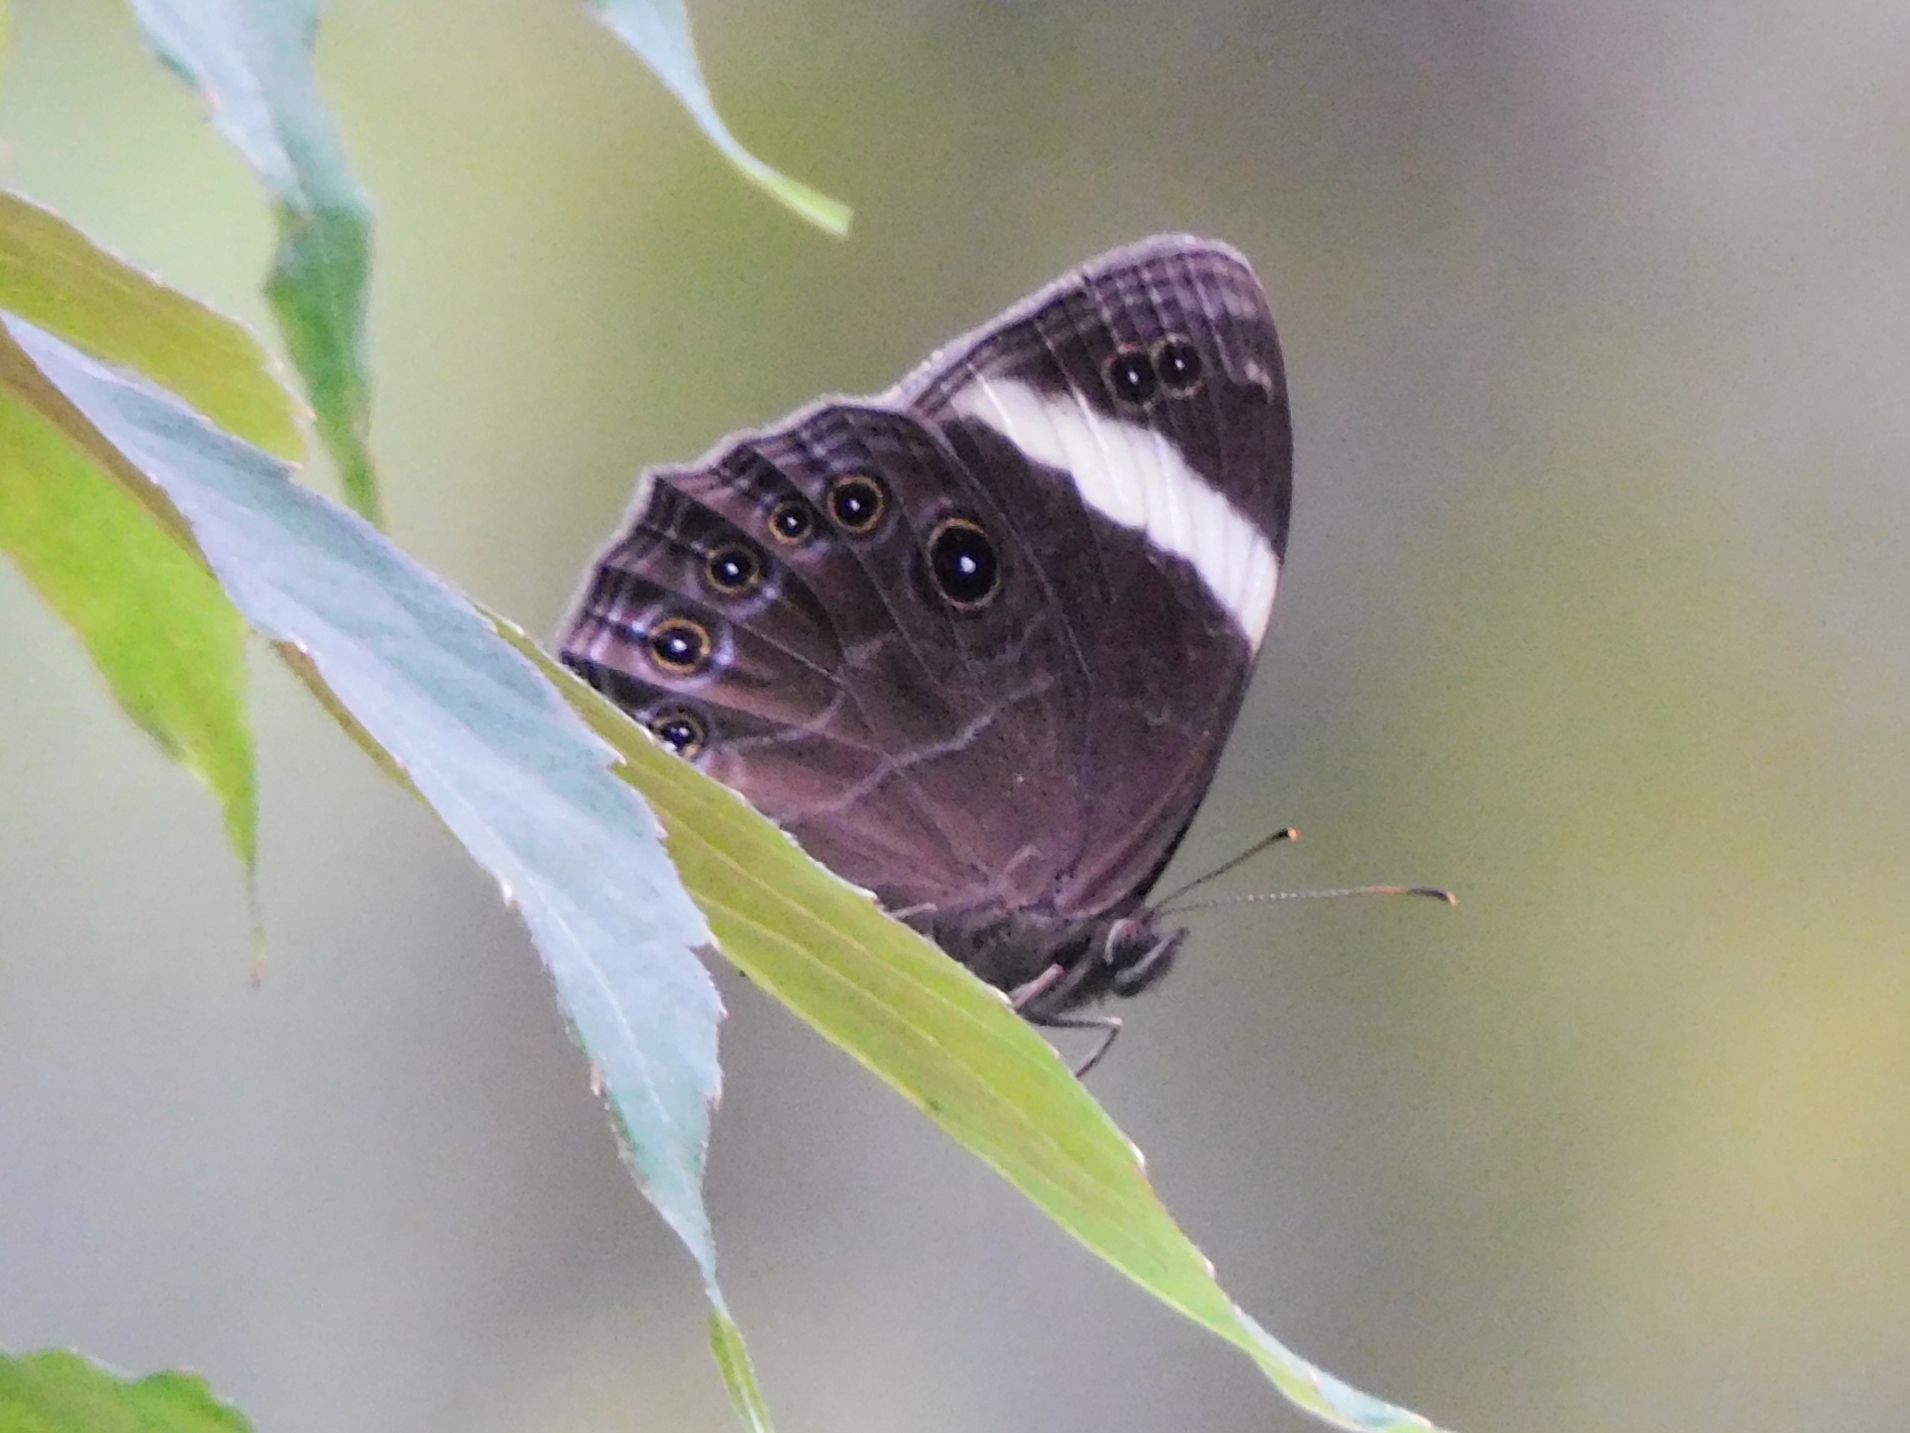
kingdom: Animalia
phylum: Arthropoda
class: Insecta
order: Lepidoptera
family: Nymphalidae
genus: Lethe
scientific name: Lethe verma
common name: Straight-banded treebrown
